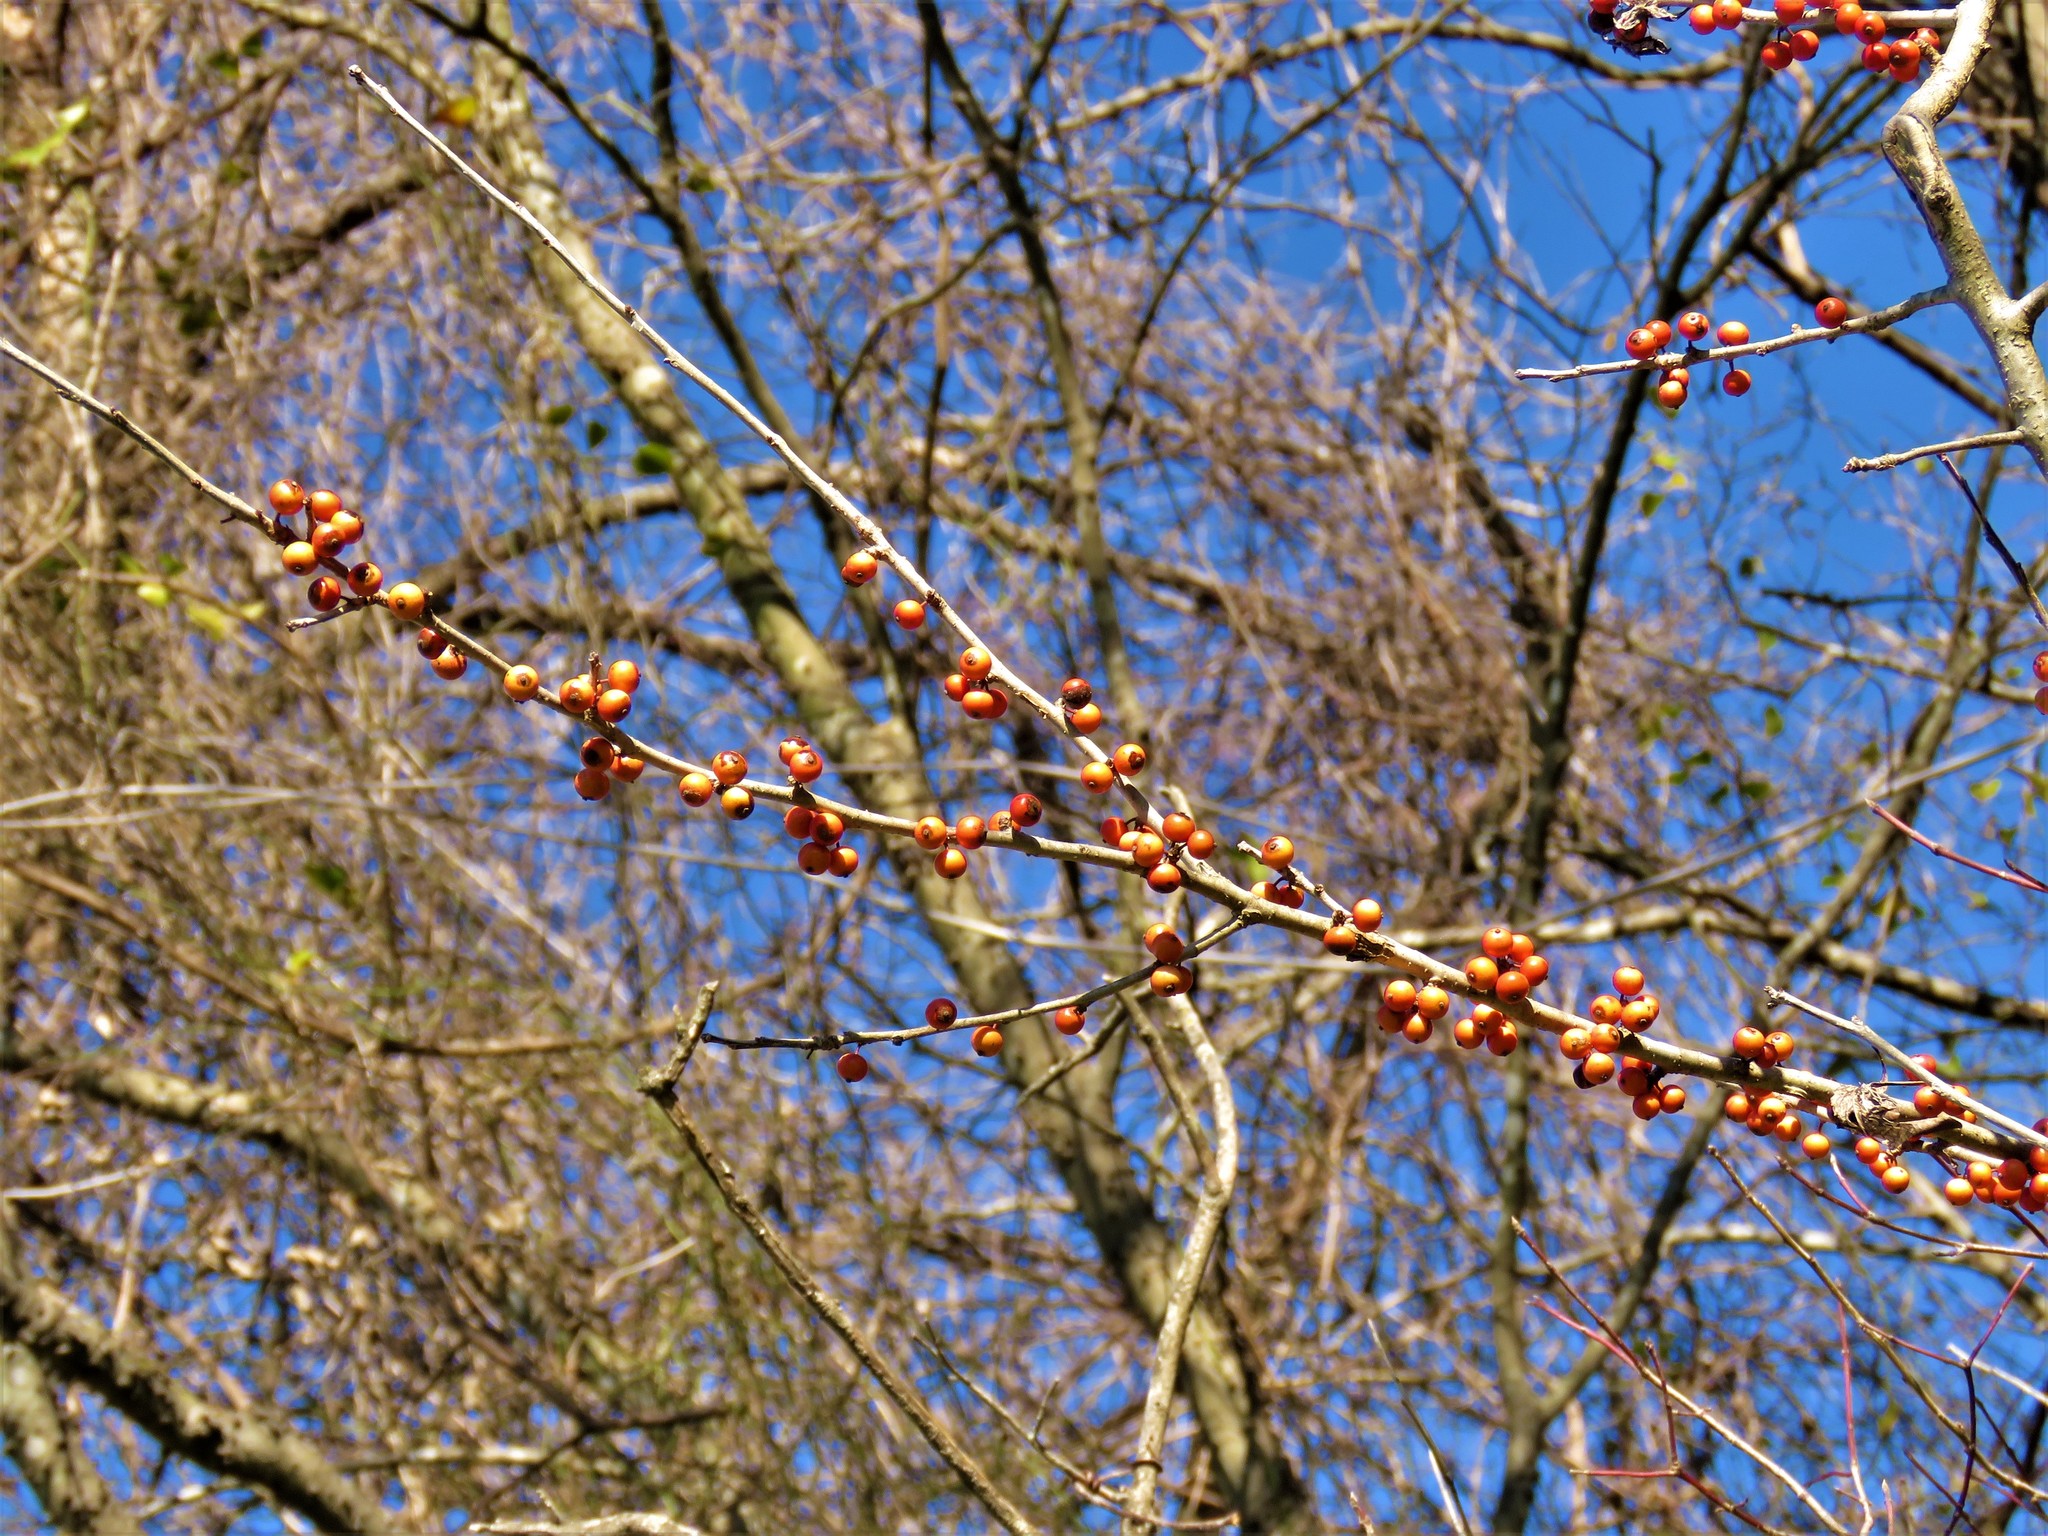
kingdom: Plantae
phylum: Tracheophyta
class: Magnoliopsida
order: Aquifoliales
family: Aquifoliaceae
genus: Ilex
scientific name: Ilex decidua
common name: Possum-haw
